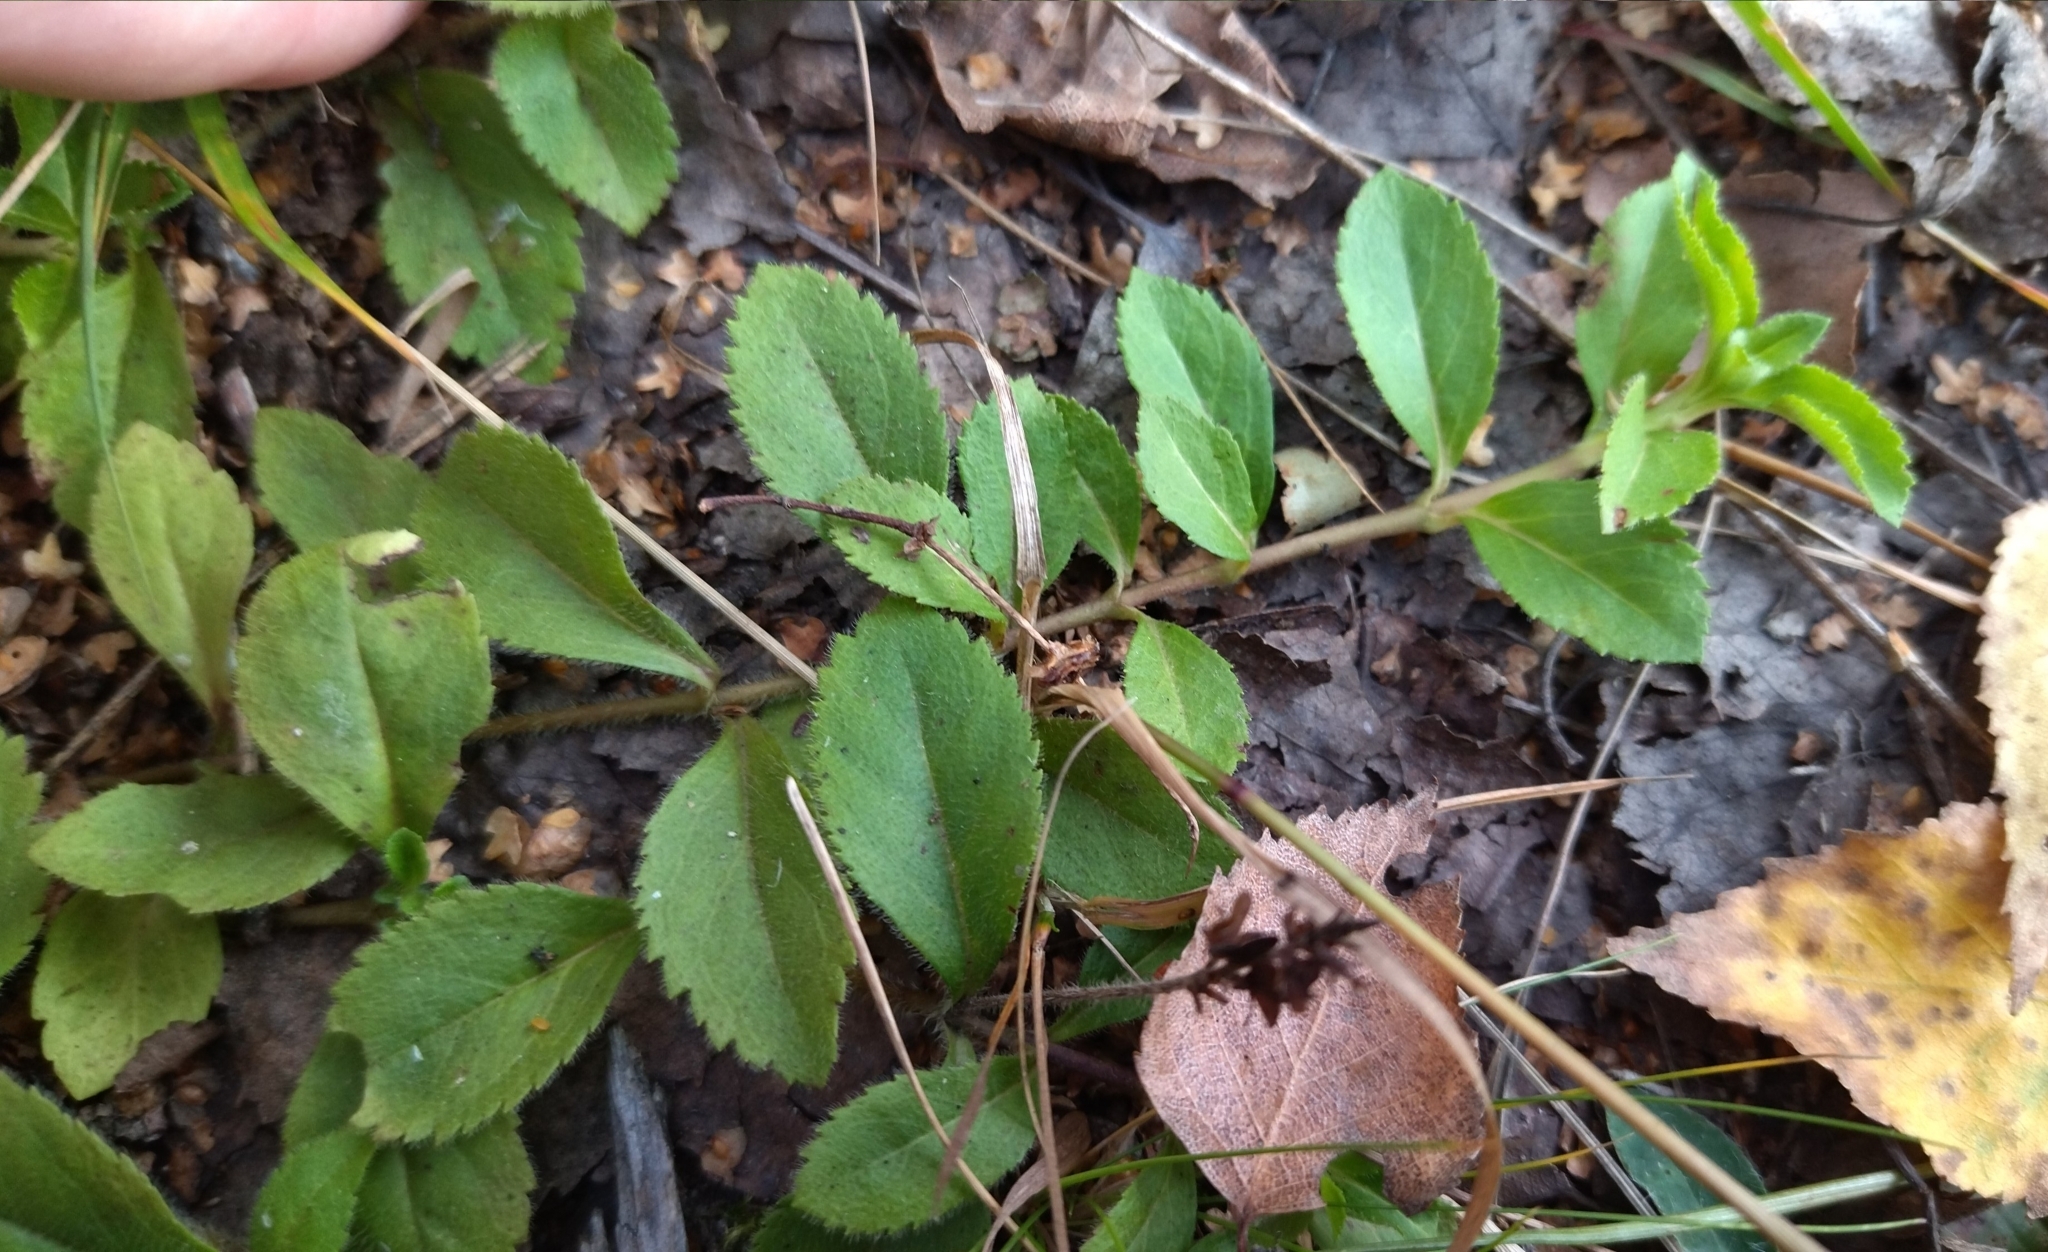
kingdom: Plantae
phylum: Tracheophyta
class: Magnoliopsida
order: Lamiales
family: Plantaginaceae
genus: Veronica
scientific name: Veronica officinalis
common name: Common speedwell
